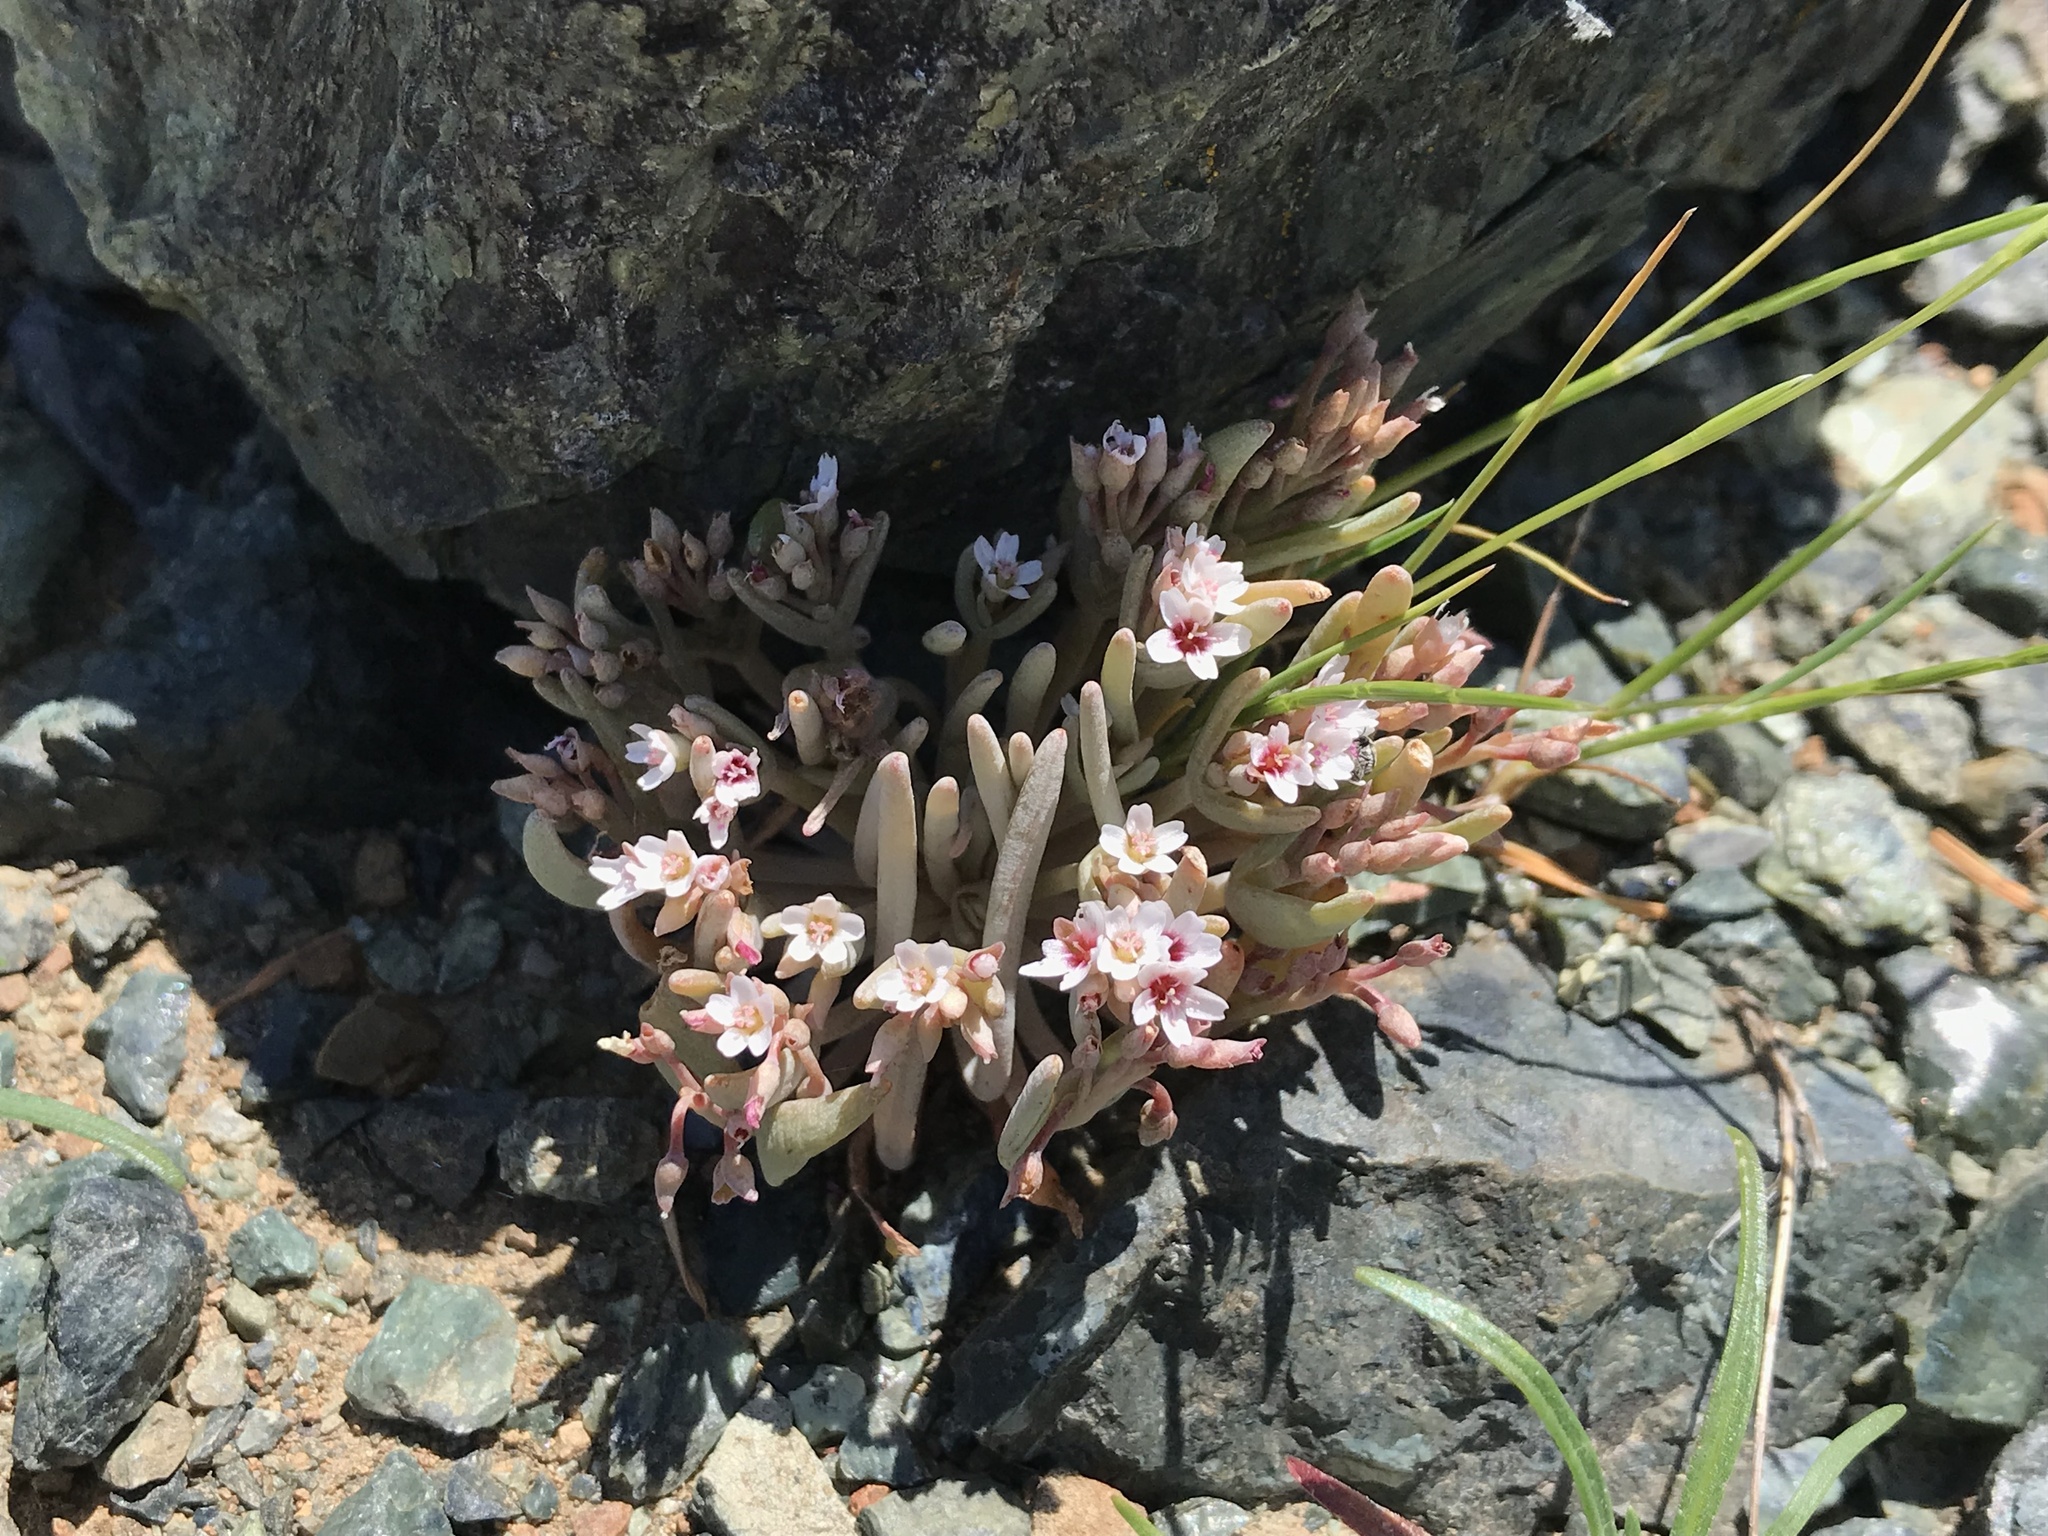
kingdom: Plantae
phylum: Tracheophyta
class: Magnoliopsida
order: Caryophyllales
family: Montiaceae
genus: Claytonia
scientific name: Claytonia exigua
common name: Pale spring beauty
